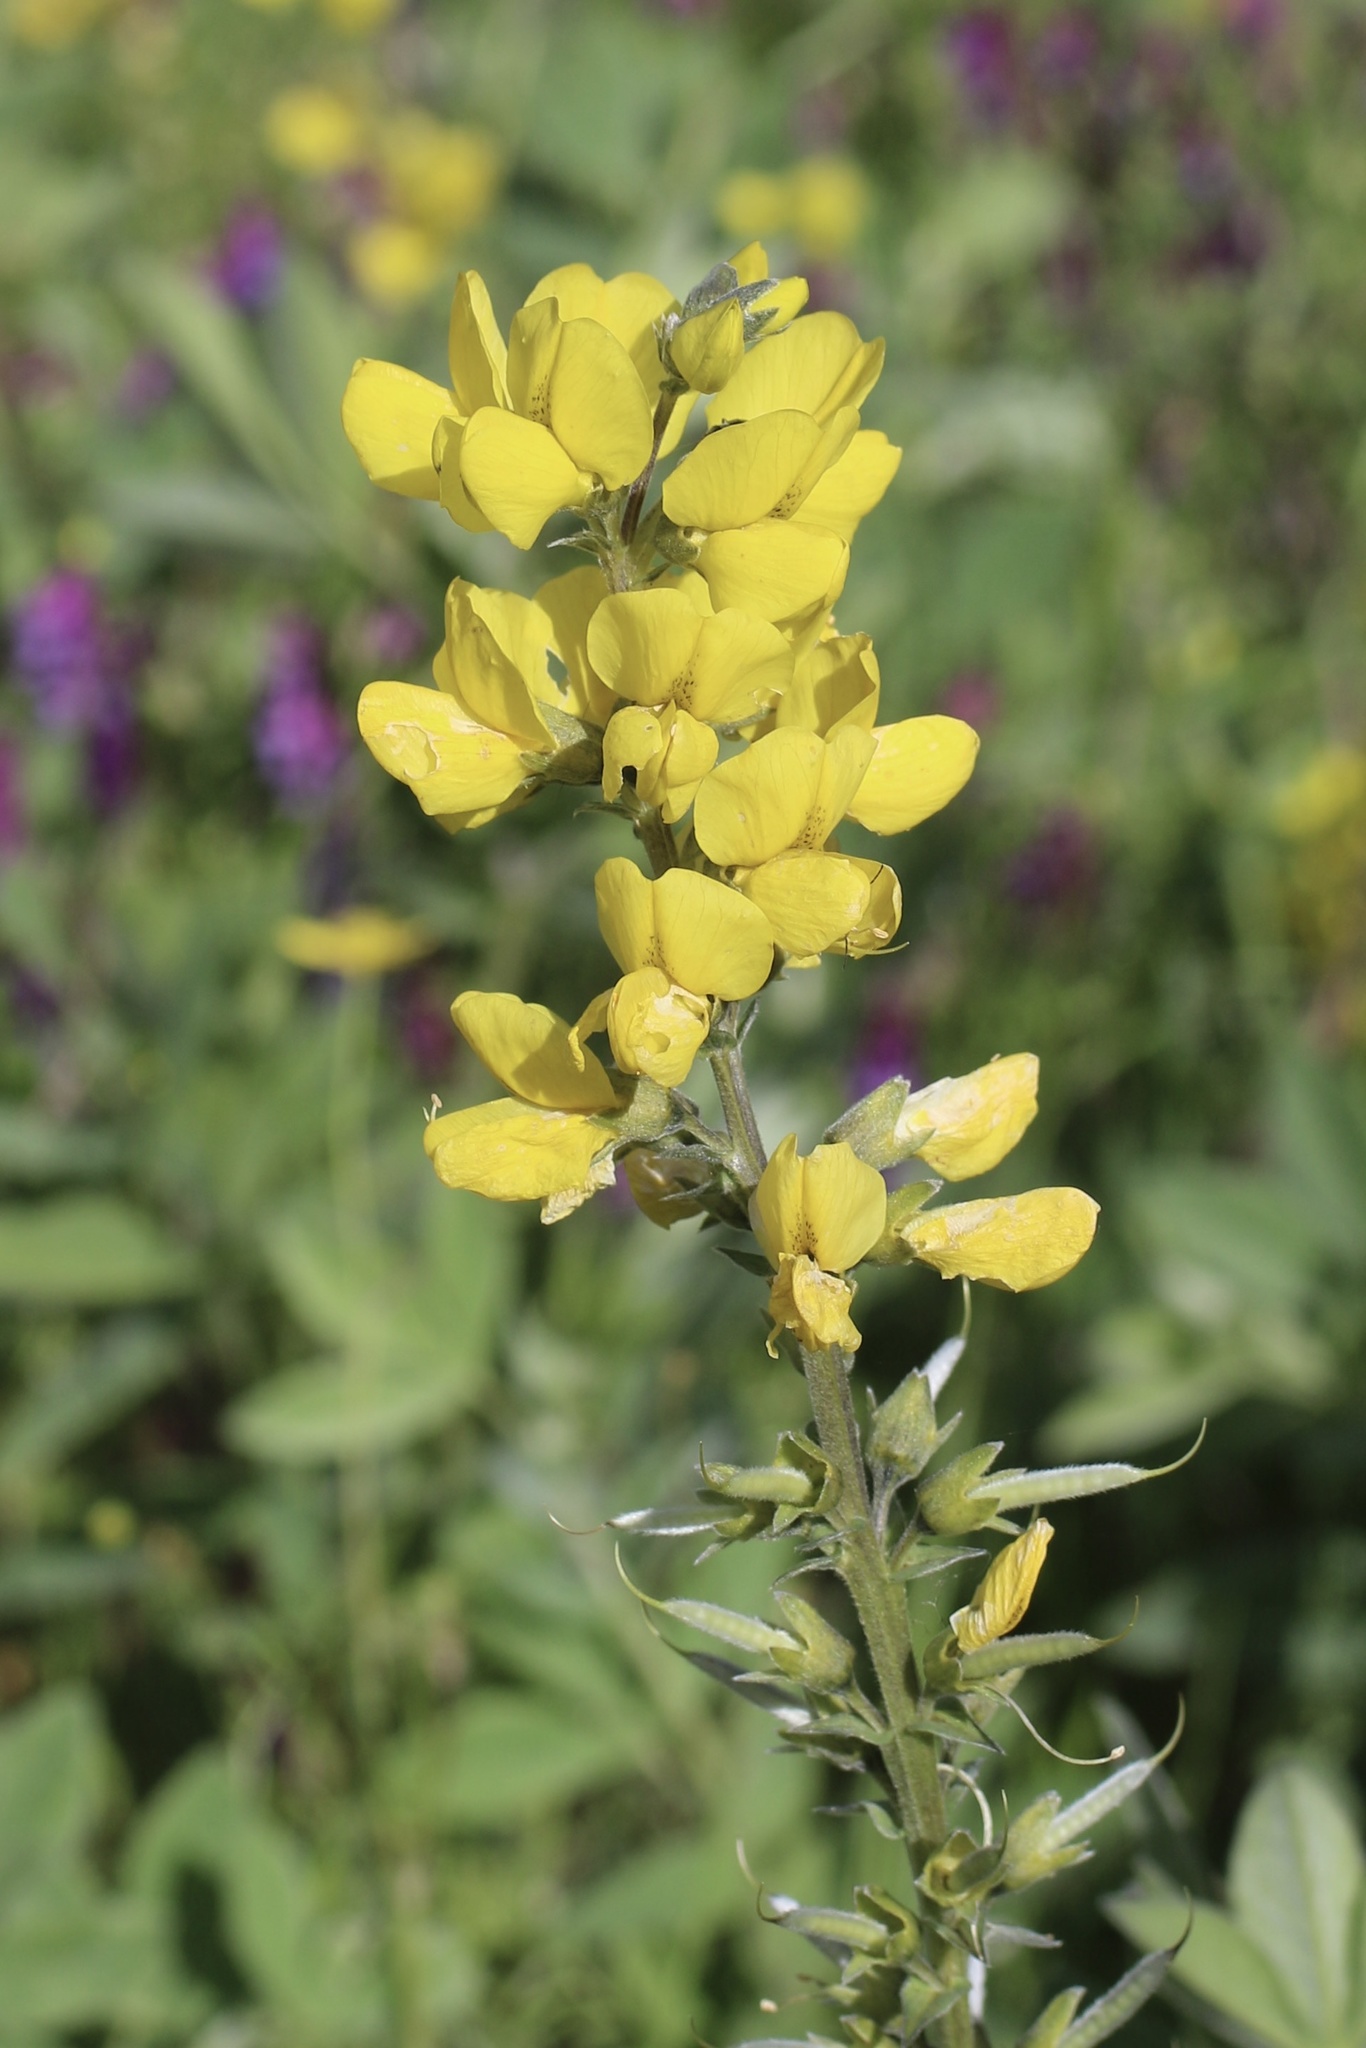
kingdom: Plantae
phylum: Tracheophyta
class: Magnoliopsida
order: Fabales
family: Fabaceae
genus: Thermopsis
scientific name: Thermopsis californica
